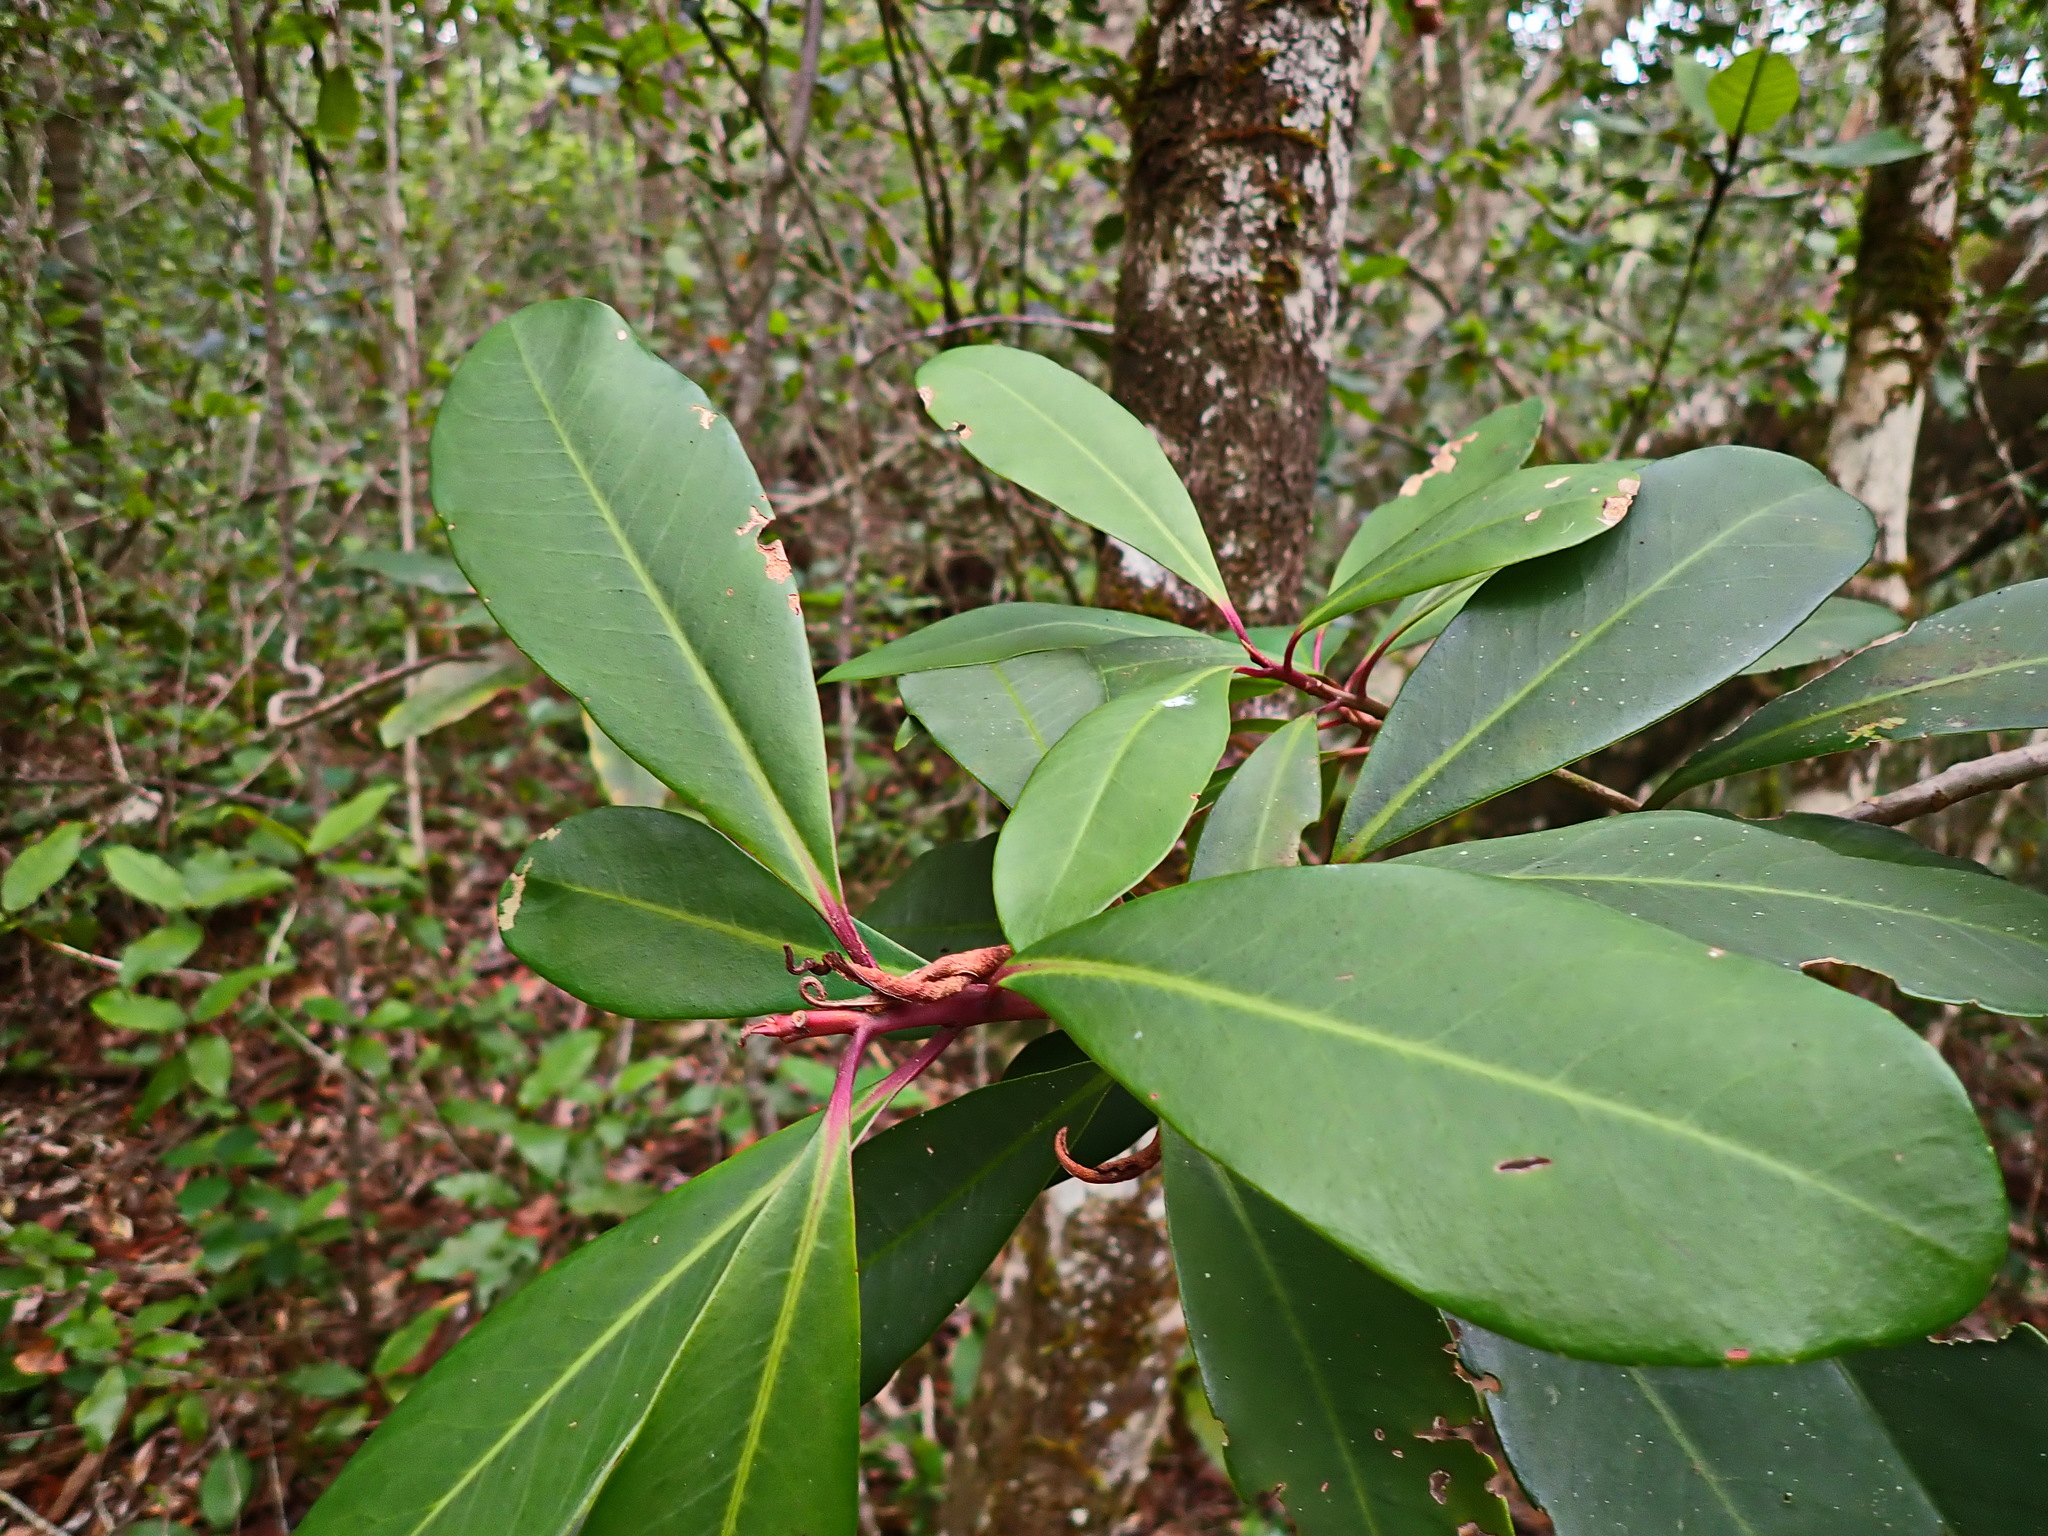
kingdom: Plantae
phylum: Tracheophyta
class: Magnoliopsida
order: Ericales
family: Primulaceae
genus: Myrsine
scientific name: Myrsine melanophloeos
